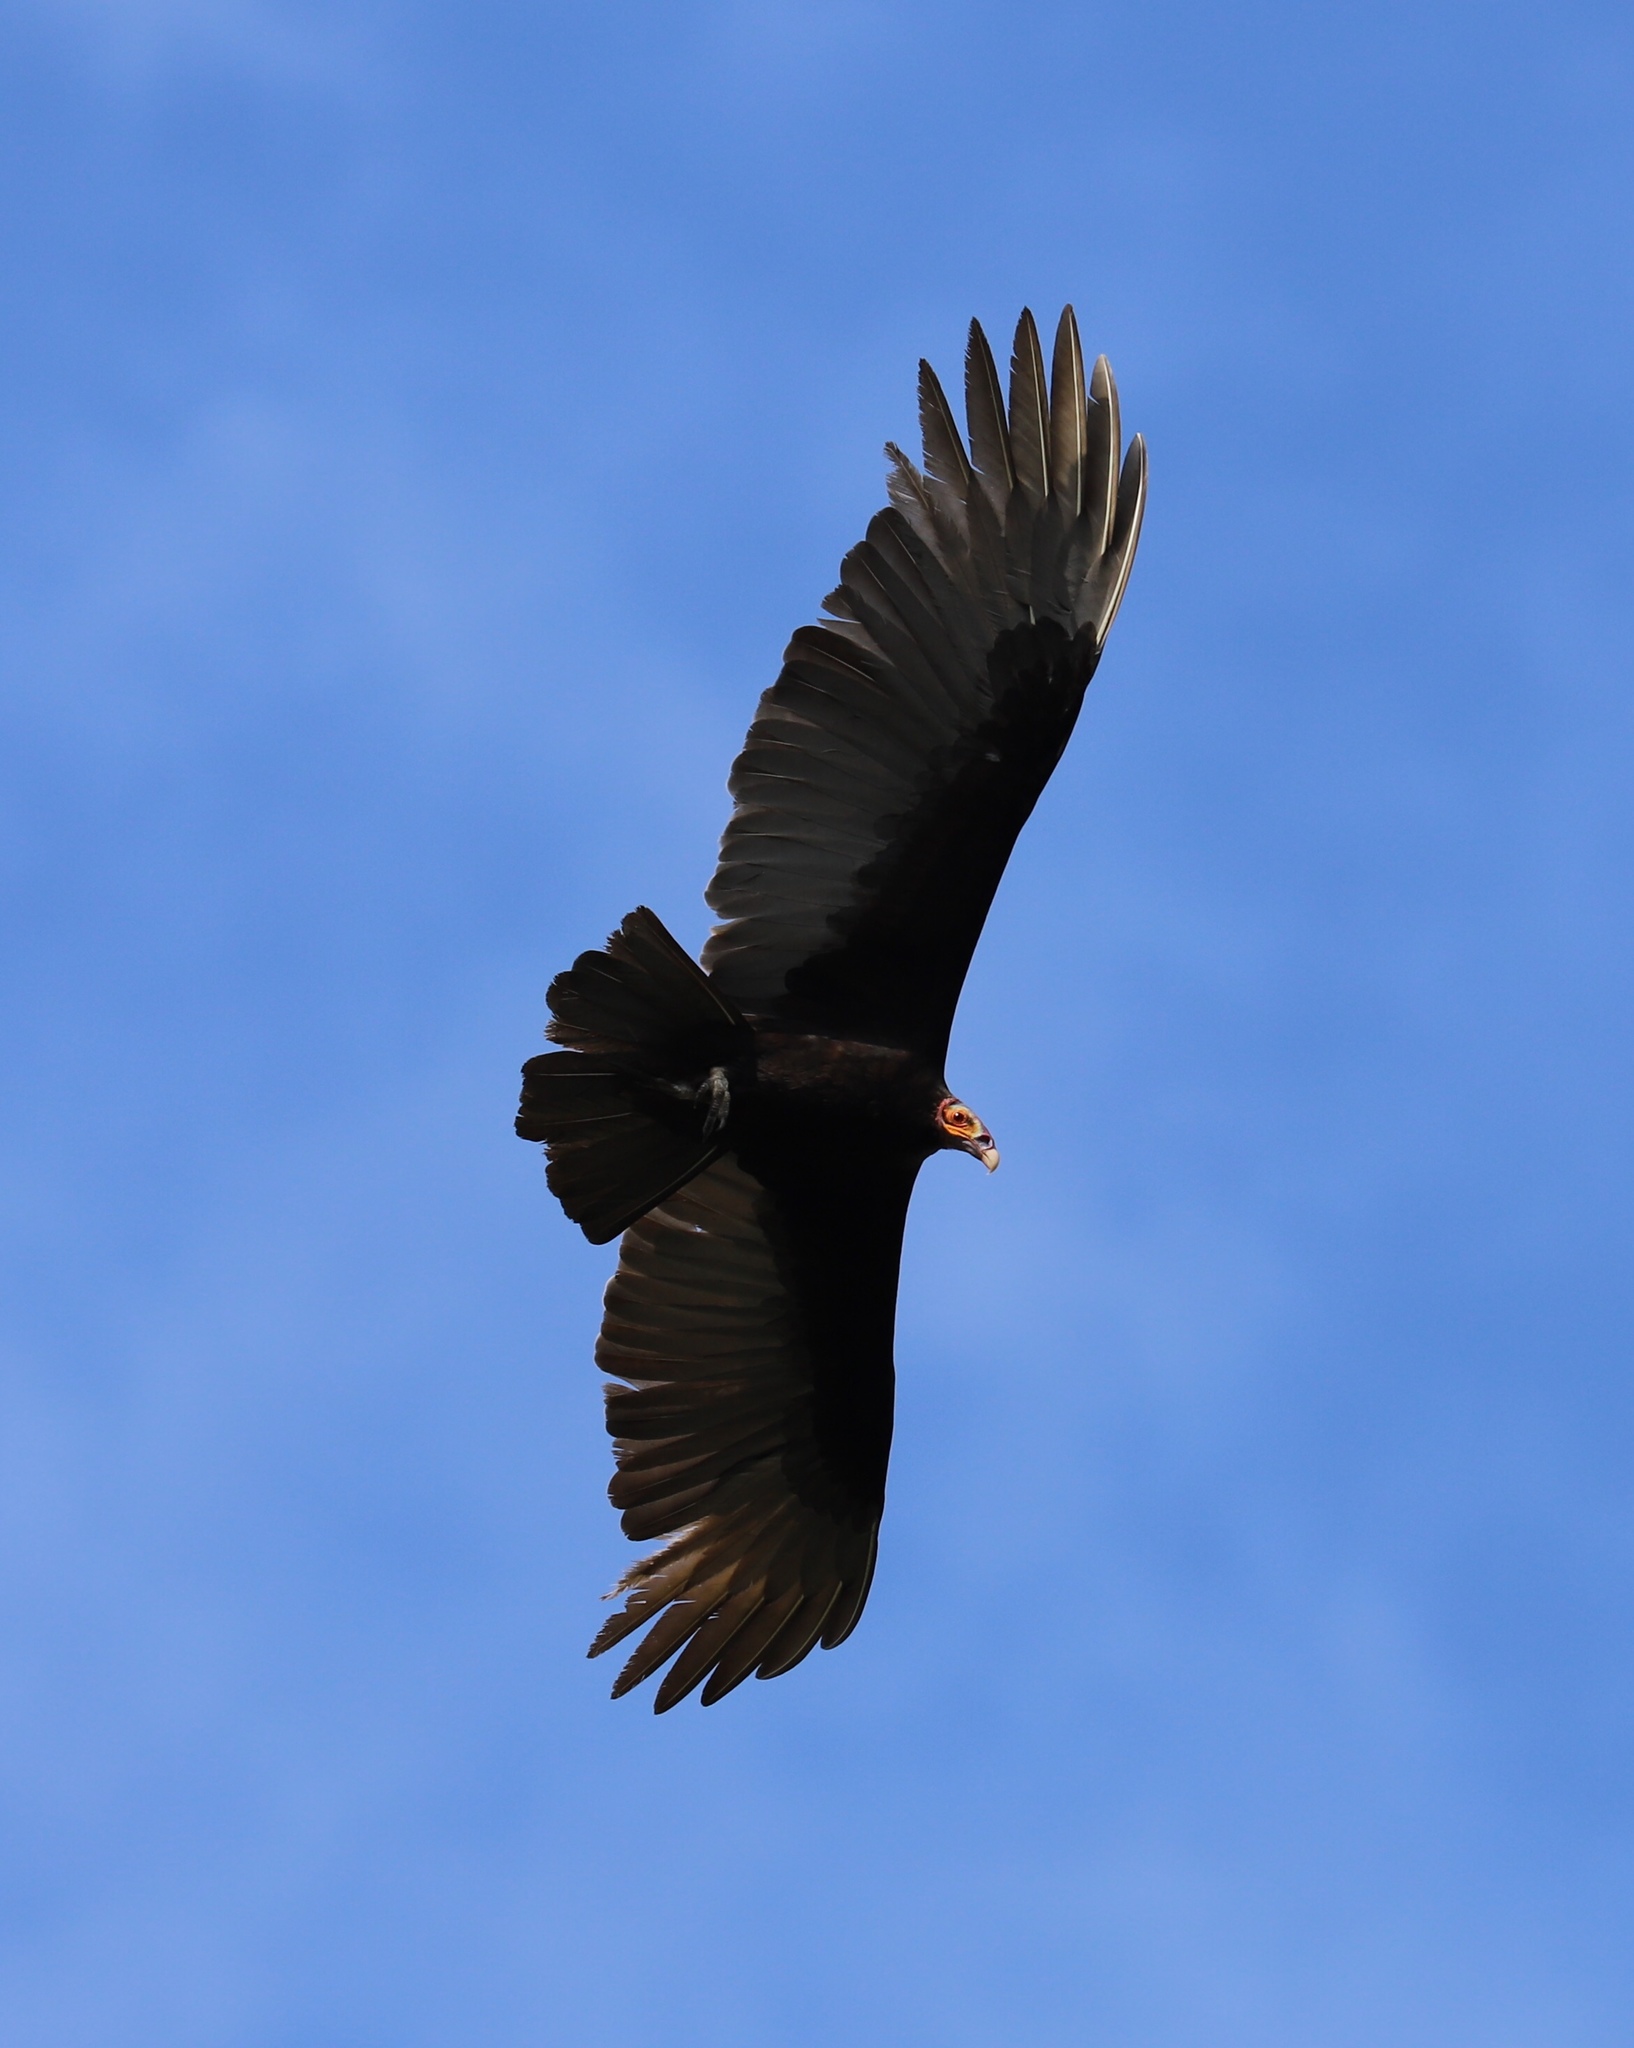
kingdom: Animalia
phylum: Chordata
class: Aves
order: Accipitriformes
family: Cathartidae
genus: Cathartes
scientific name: Cathartes burrovianus
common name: Lesser yellow-headed vulture
